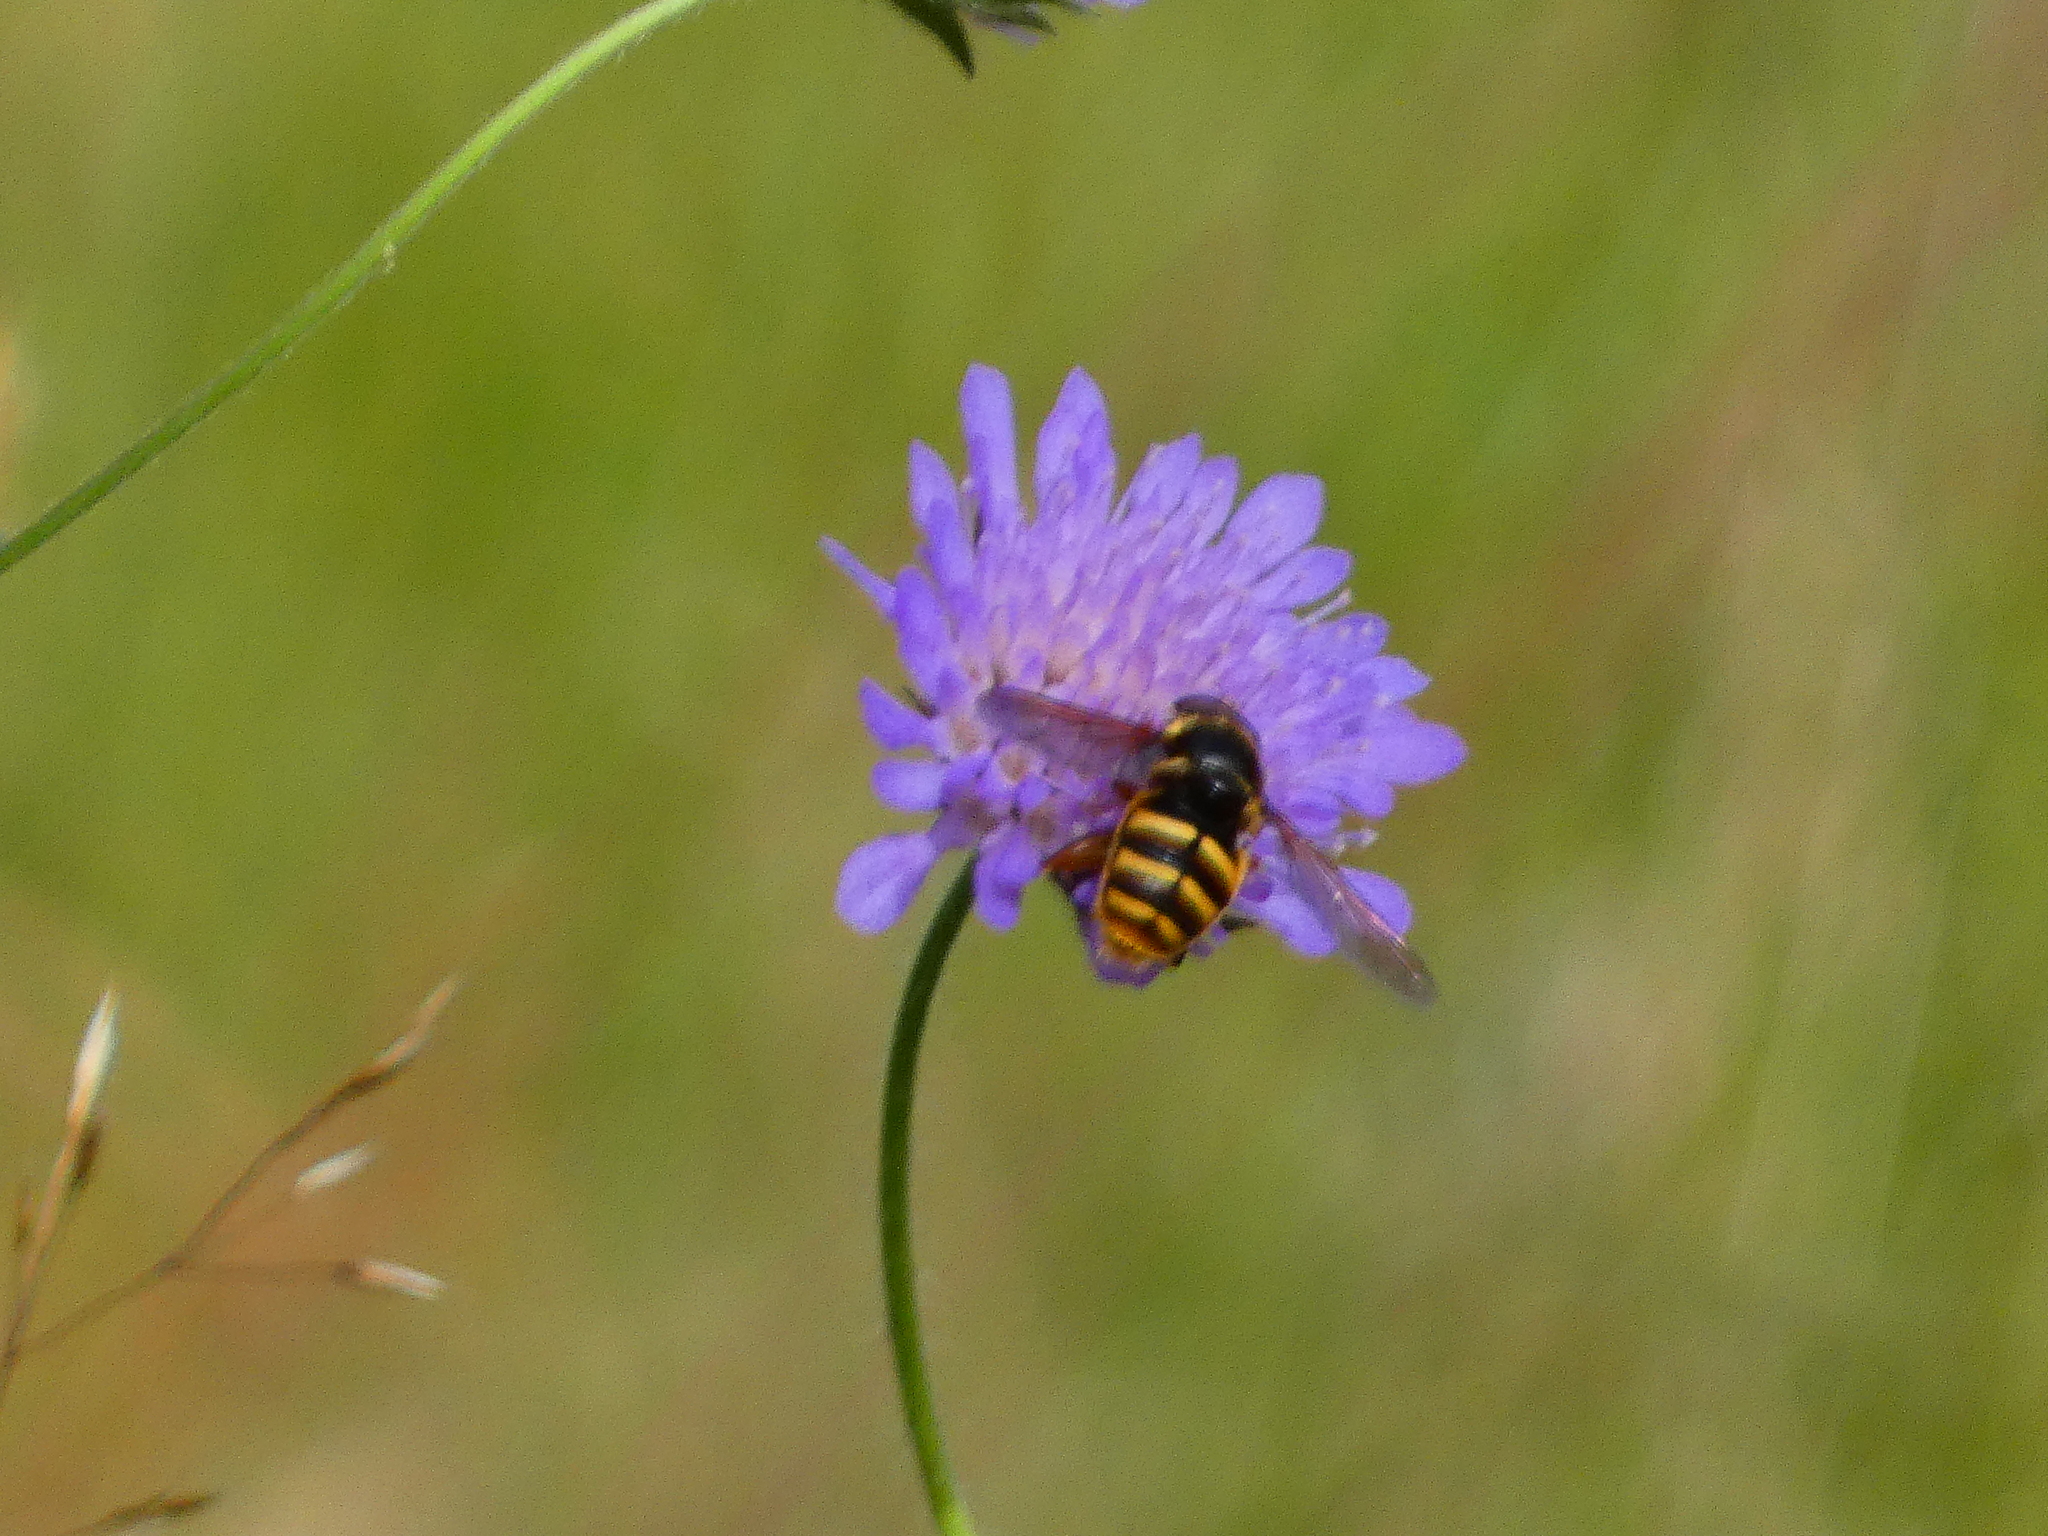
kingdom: Animalia
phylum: Arthropoda
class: Insecta
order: Diptera
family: Syrphidae
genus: Sericomyia
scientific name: Sericomyia silentis
